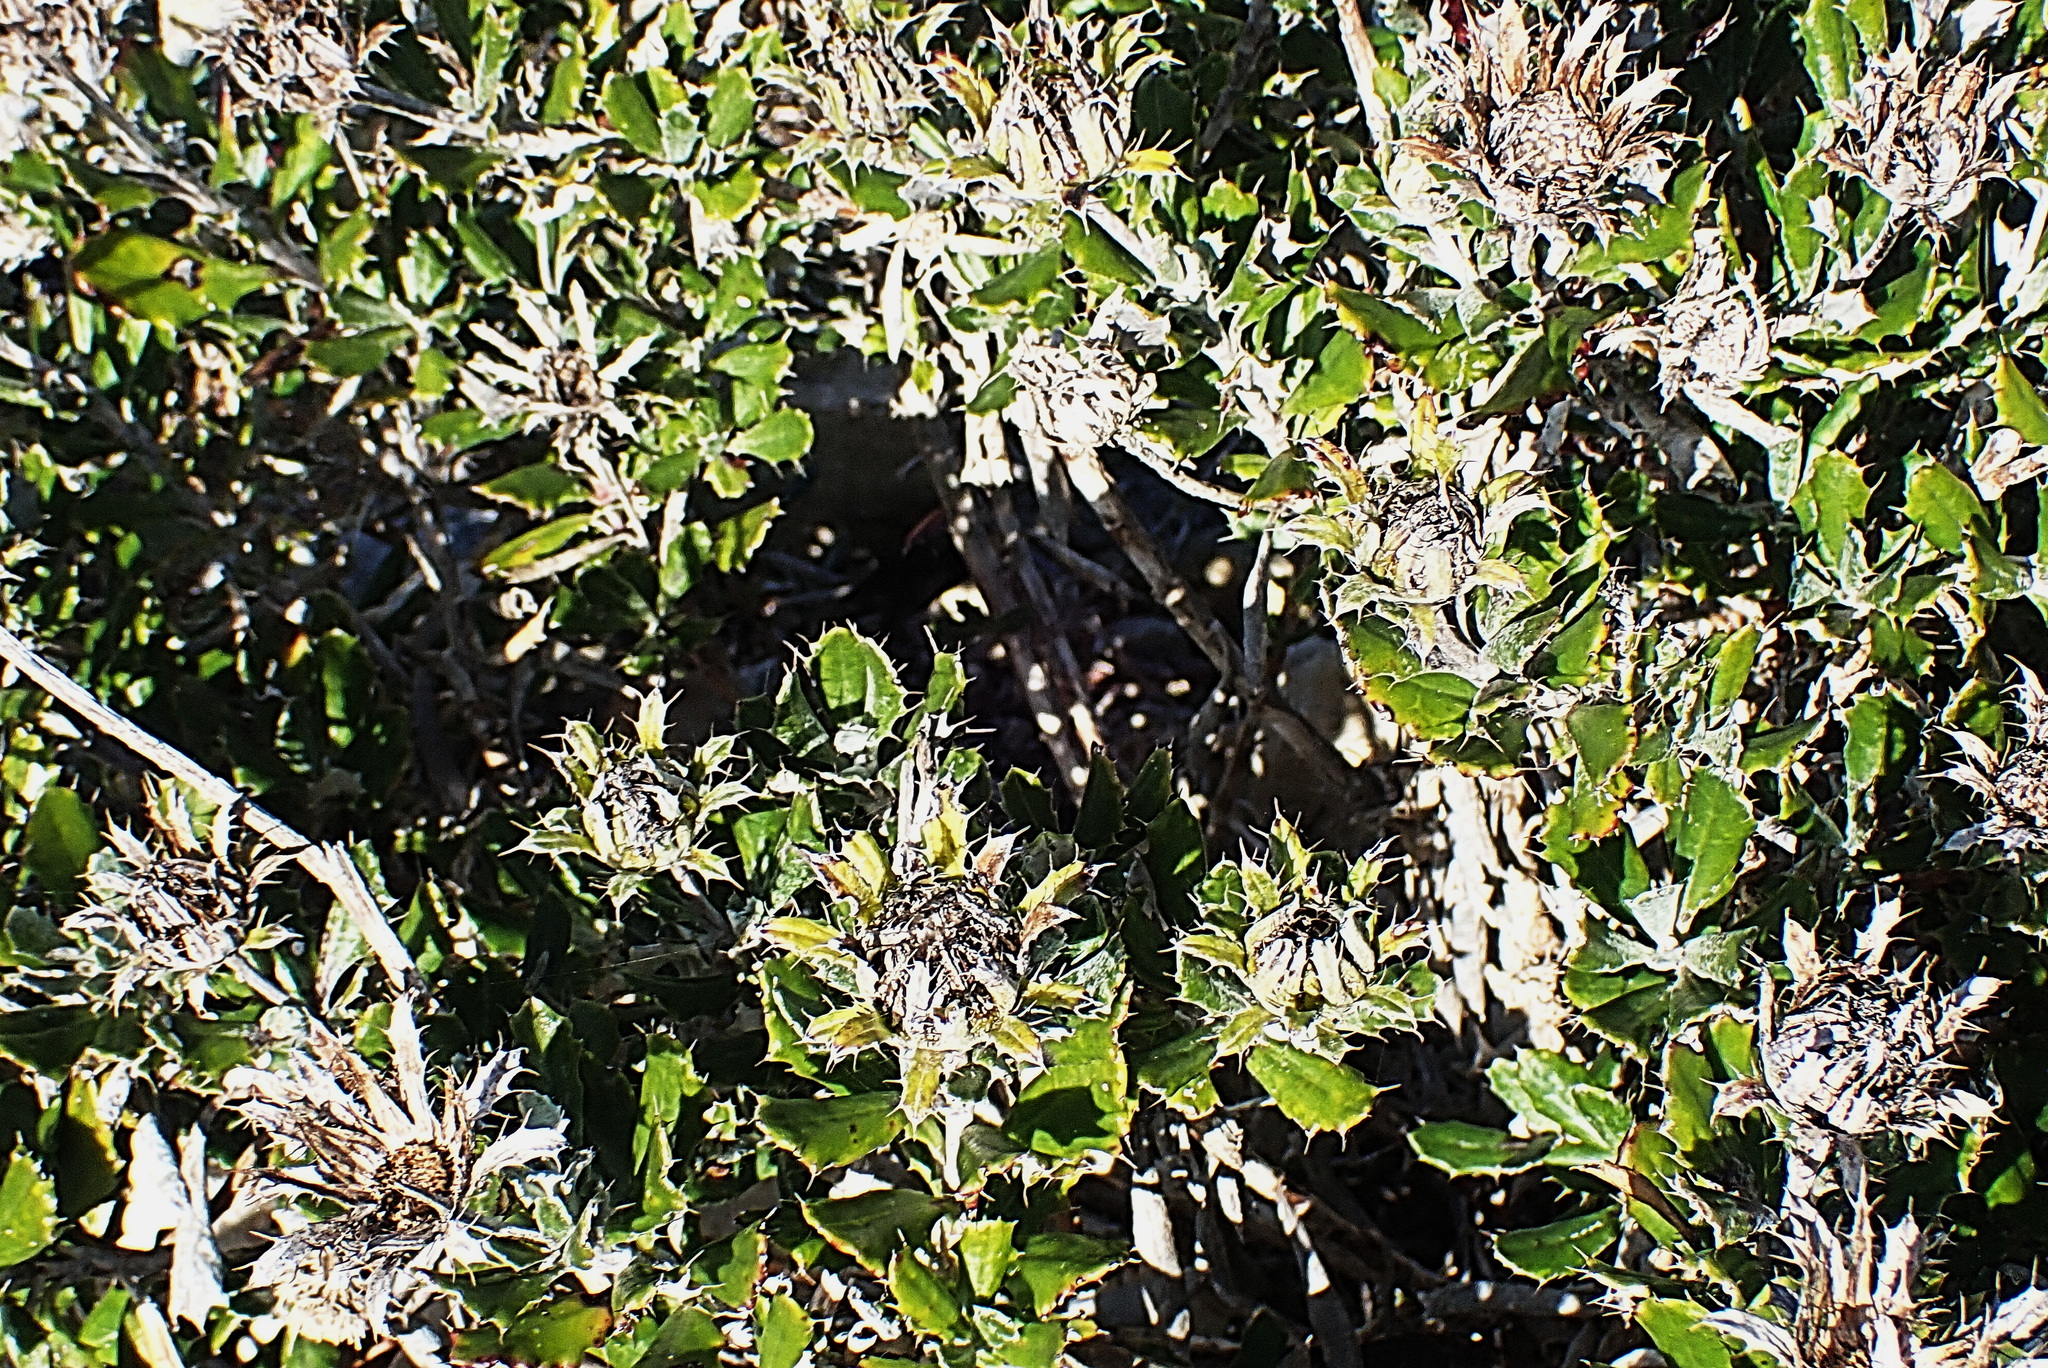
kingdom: Plantae
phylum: Tracheophyta
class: Magnoliopsida
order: Asterales
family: Asteraceae
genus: Berkheya
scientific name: Berkheya coriacea
